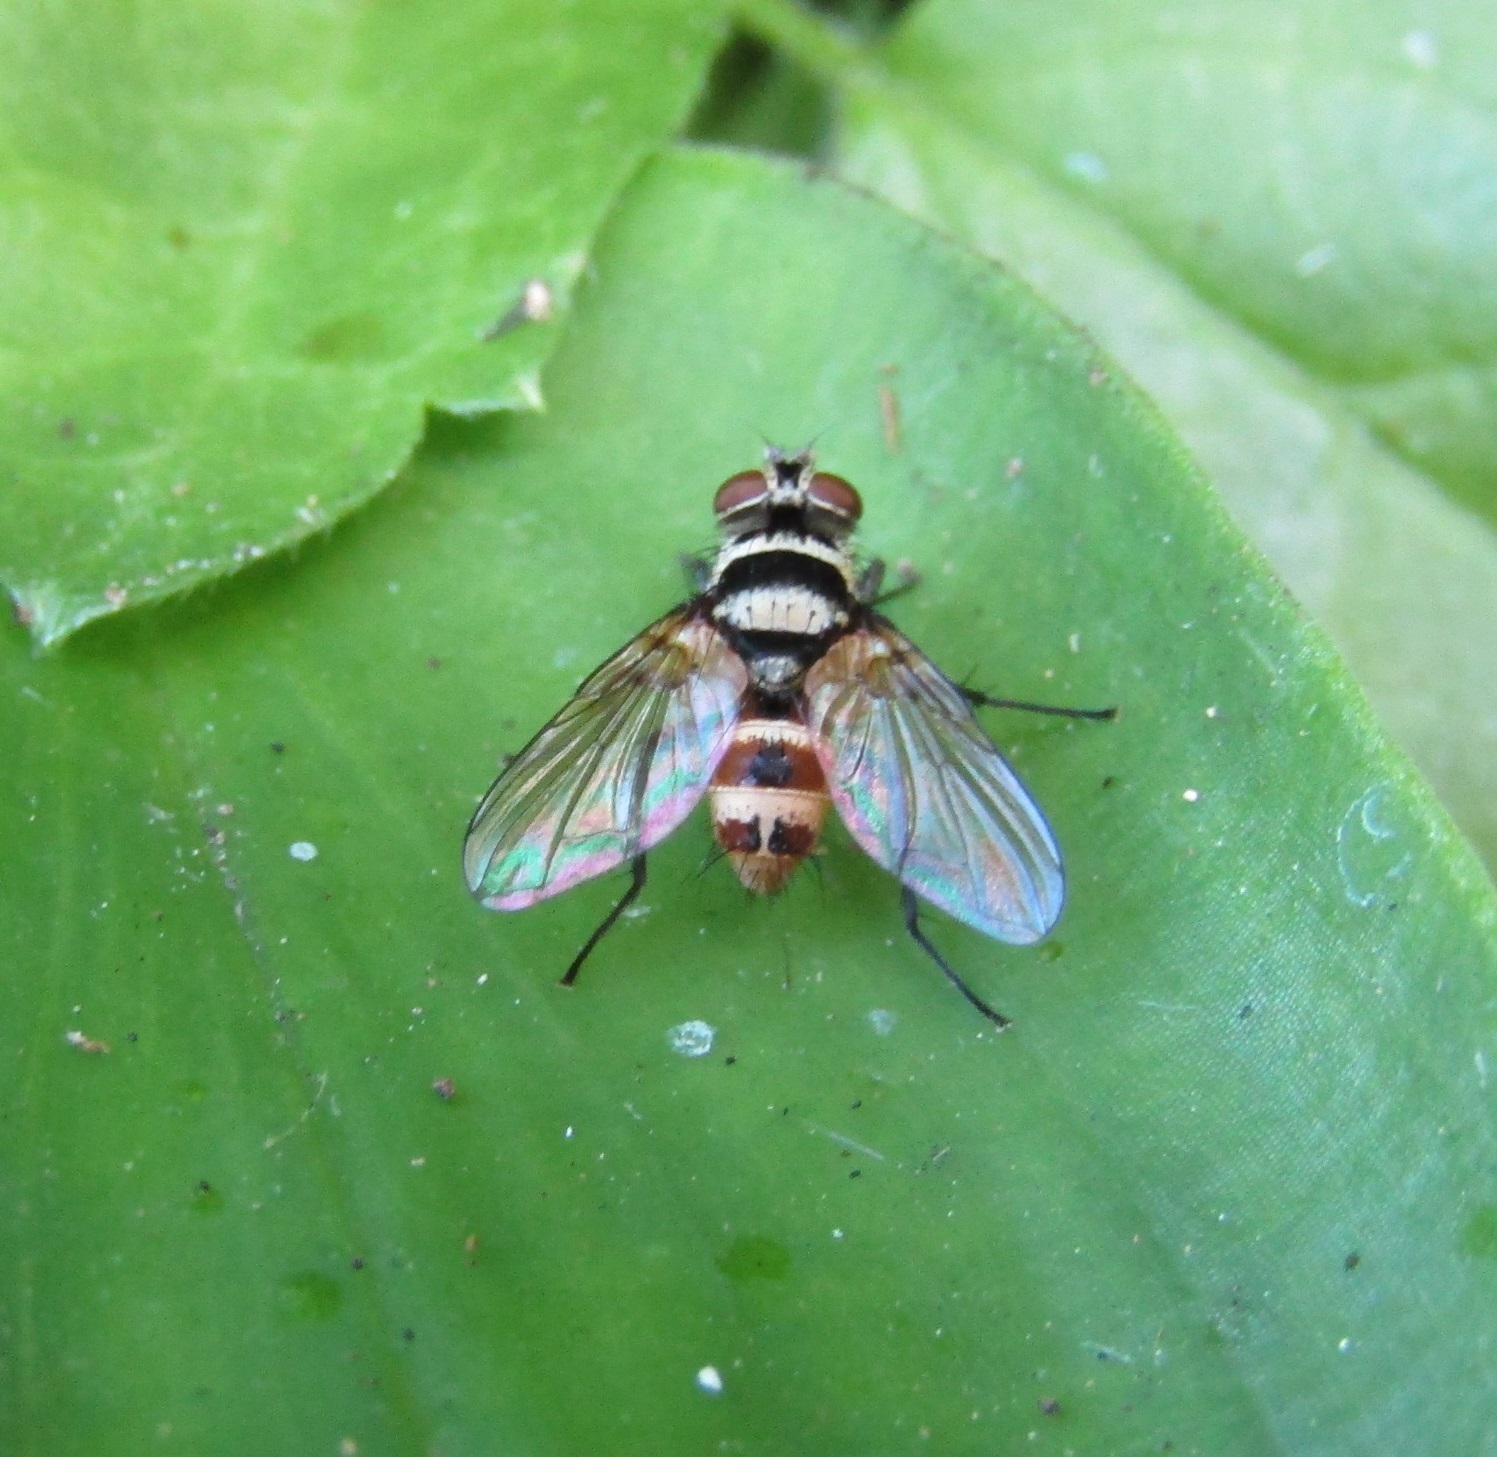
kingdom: Animalia
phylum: Arthropoda
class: Insecta
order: Diptera
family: Tachinidae
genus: Trigonospila
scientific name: Trigonospila brevifacies
